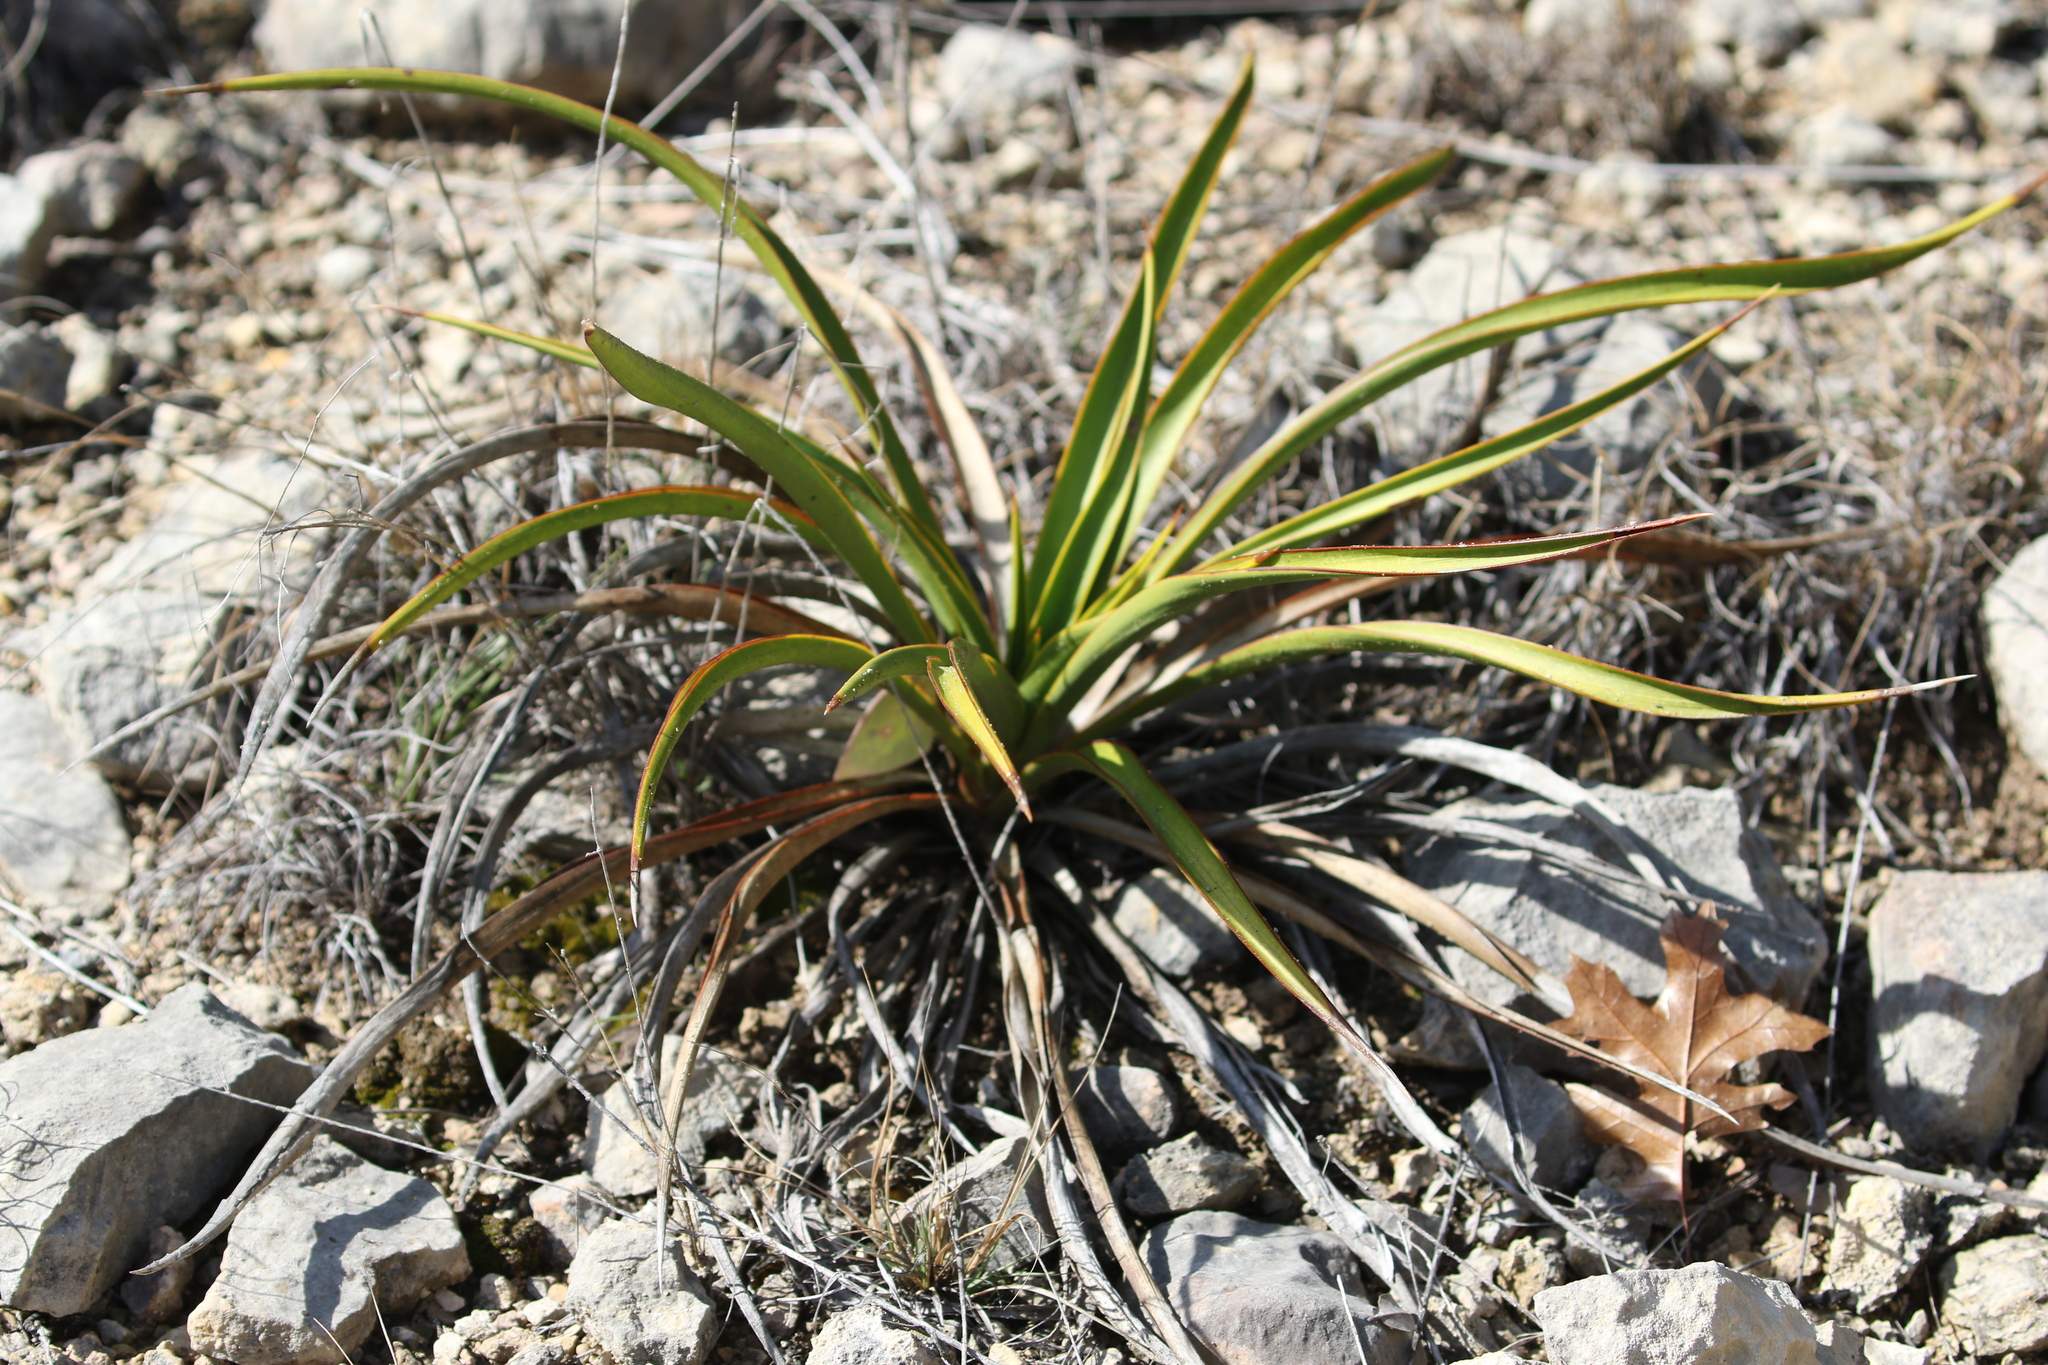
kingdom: Plantae
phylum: Tracheophyta
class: Liliopsida
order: Asparagales
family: Asparagaceae
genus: Yucca
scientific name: Yucca rupicola
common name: Twisted-leaf spanish-dagger
